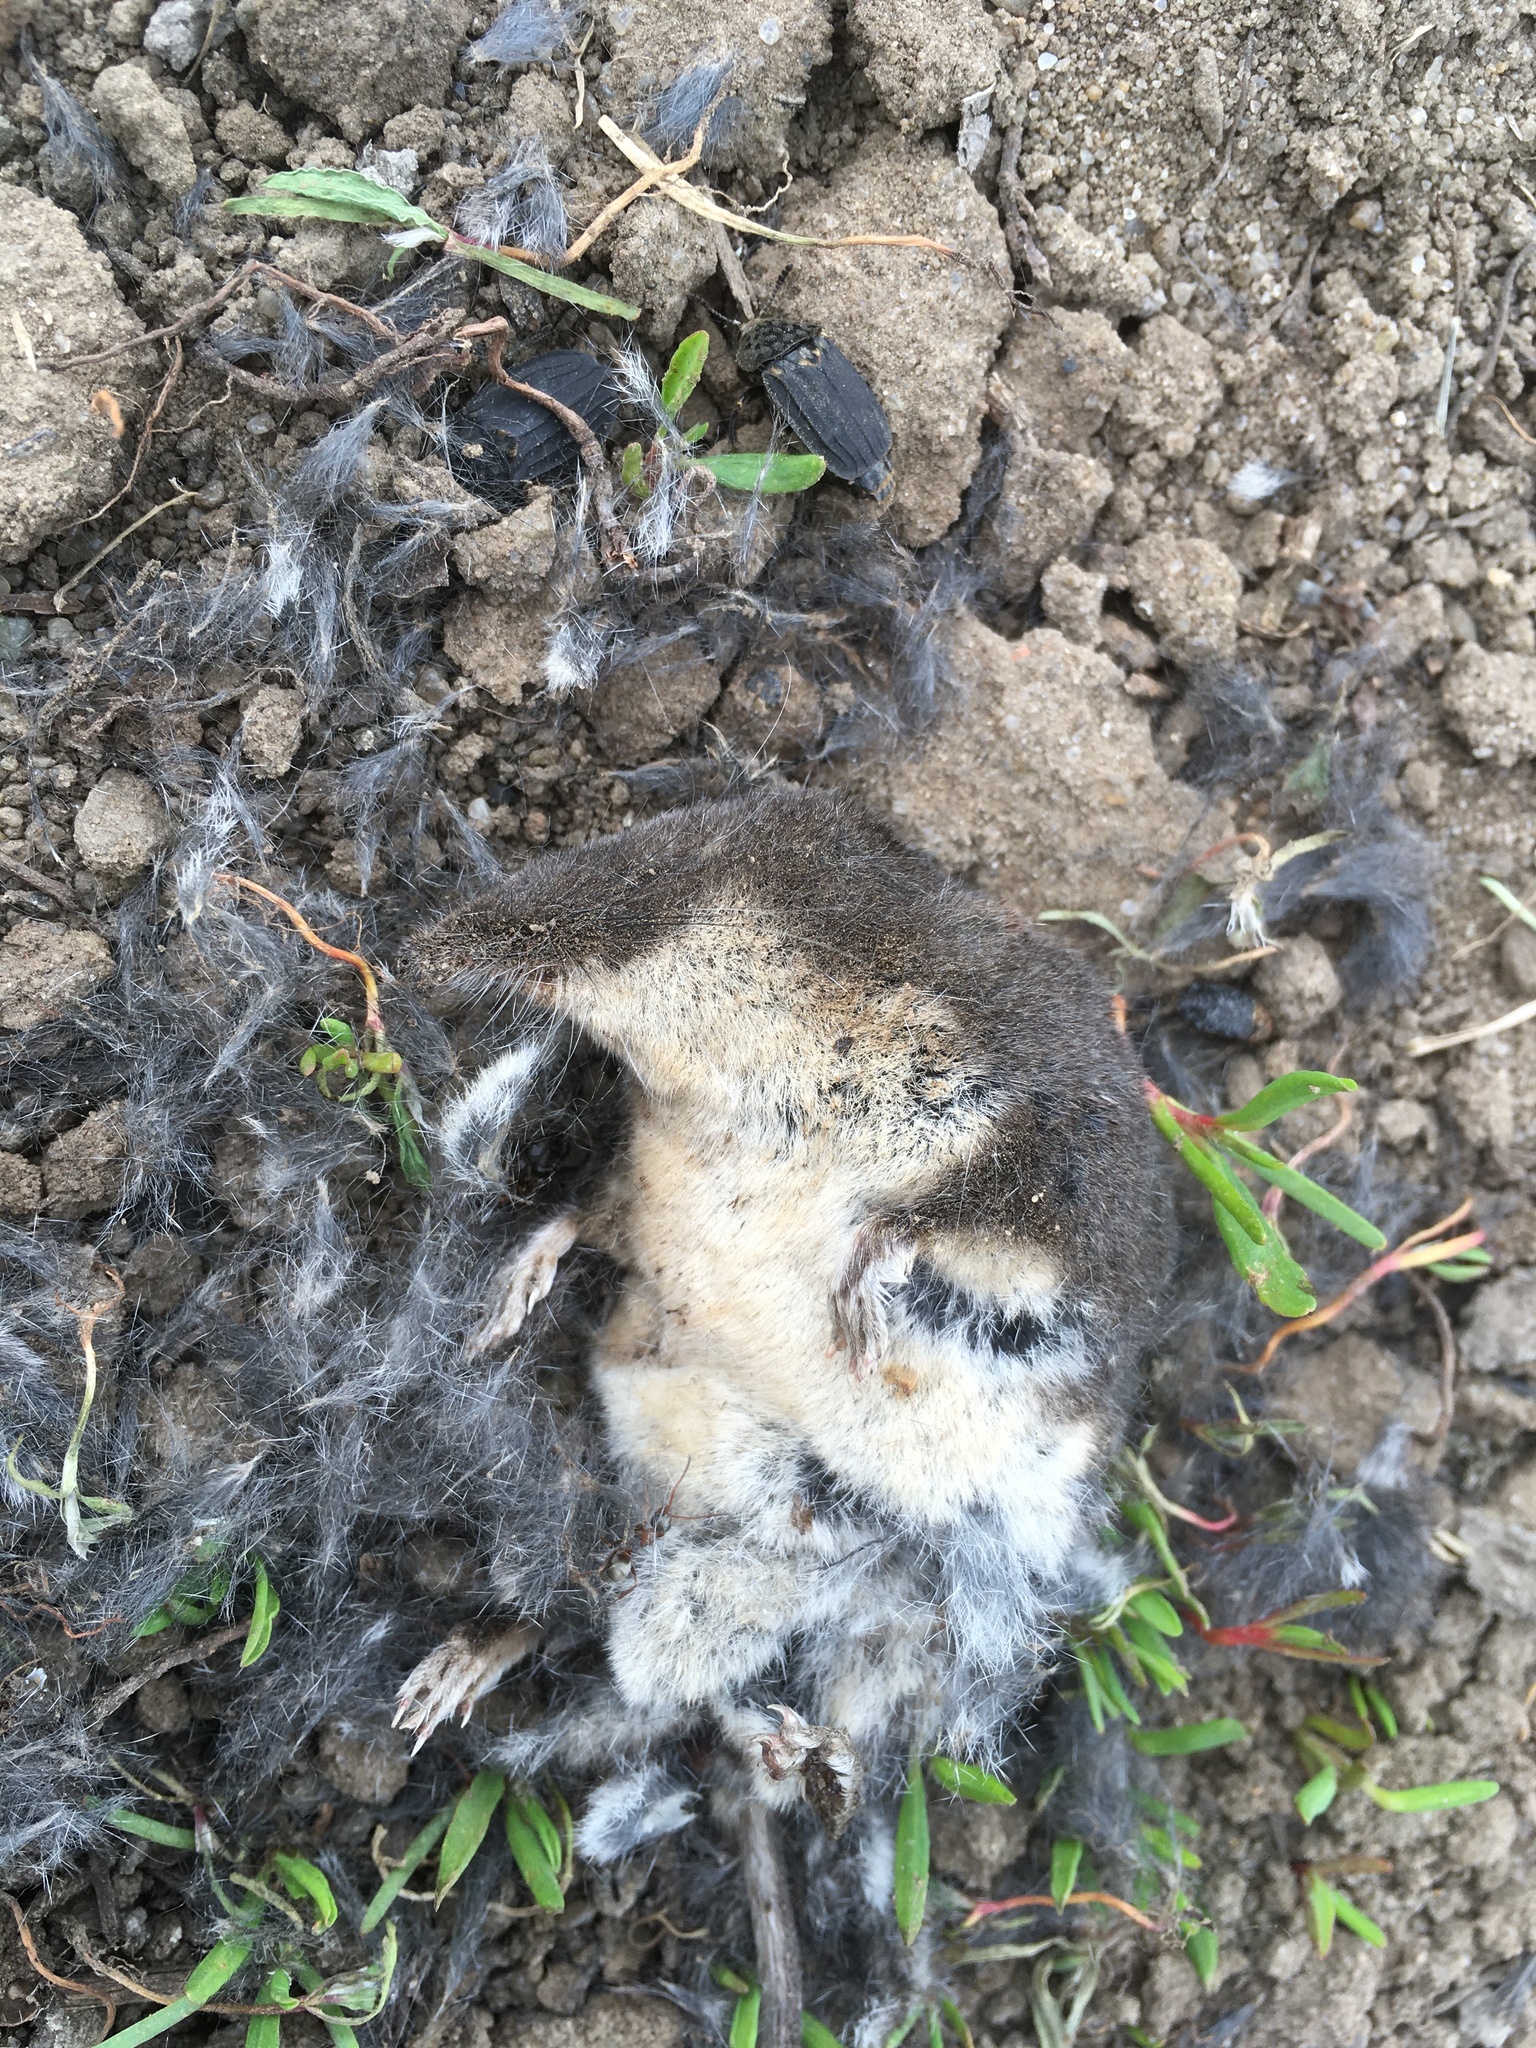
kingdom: Animalia
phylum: Chordata
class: Mammalia
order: Soricomorpha
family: Soricidae
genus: Neomys
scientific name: Neomys fodiens
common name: Eurasian water shrew
